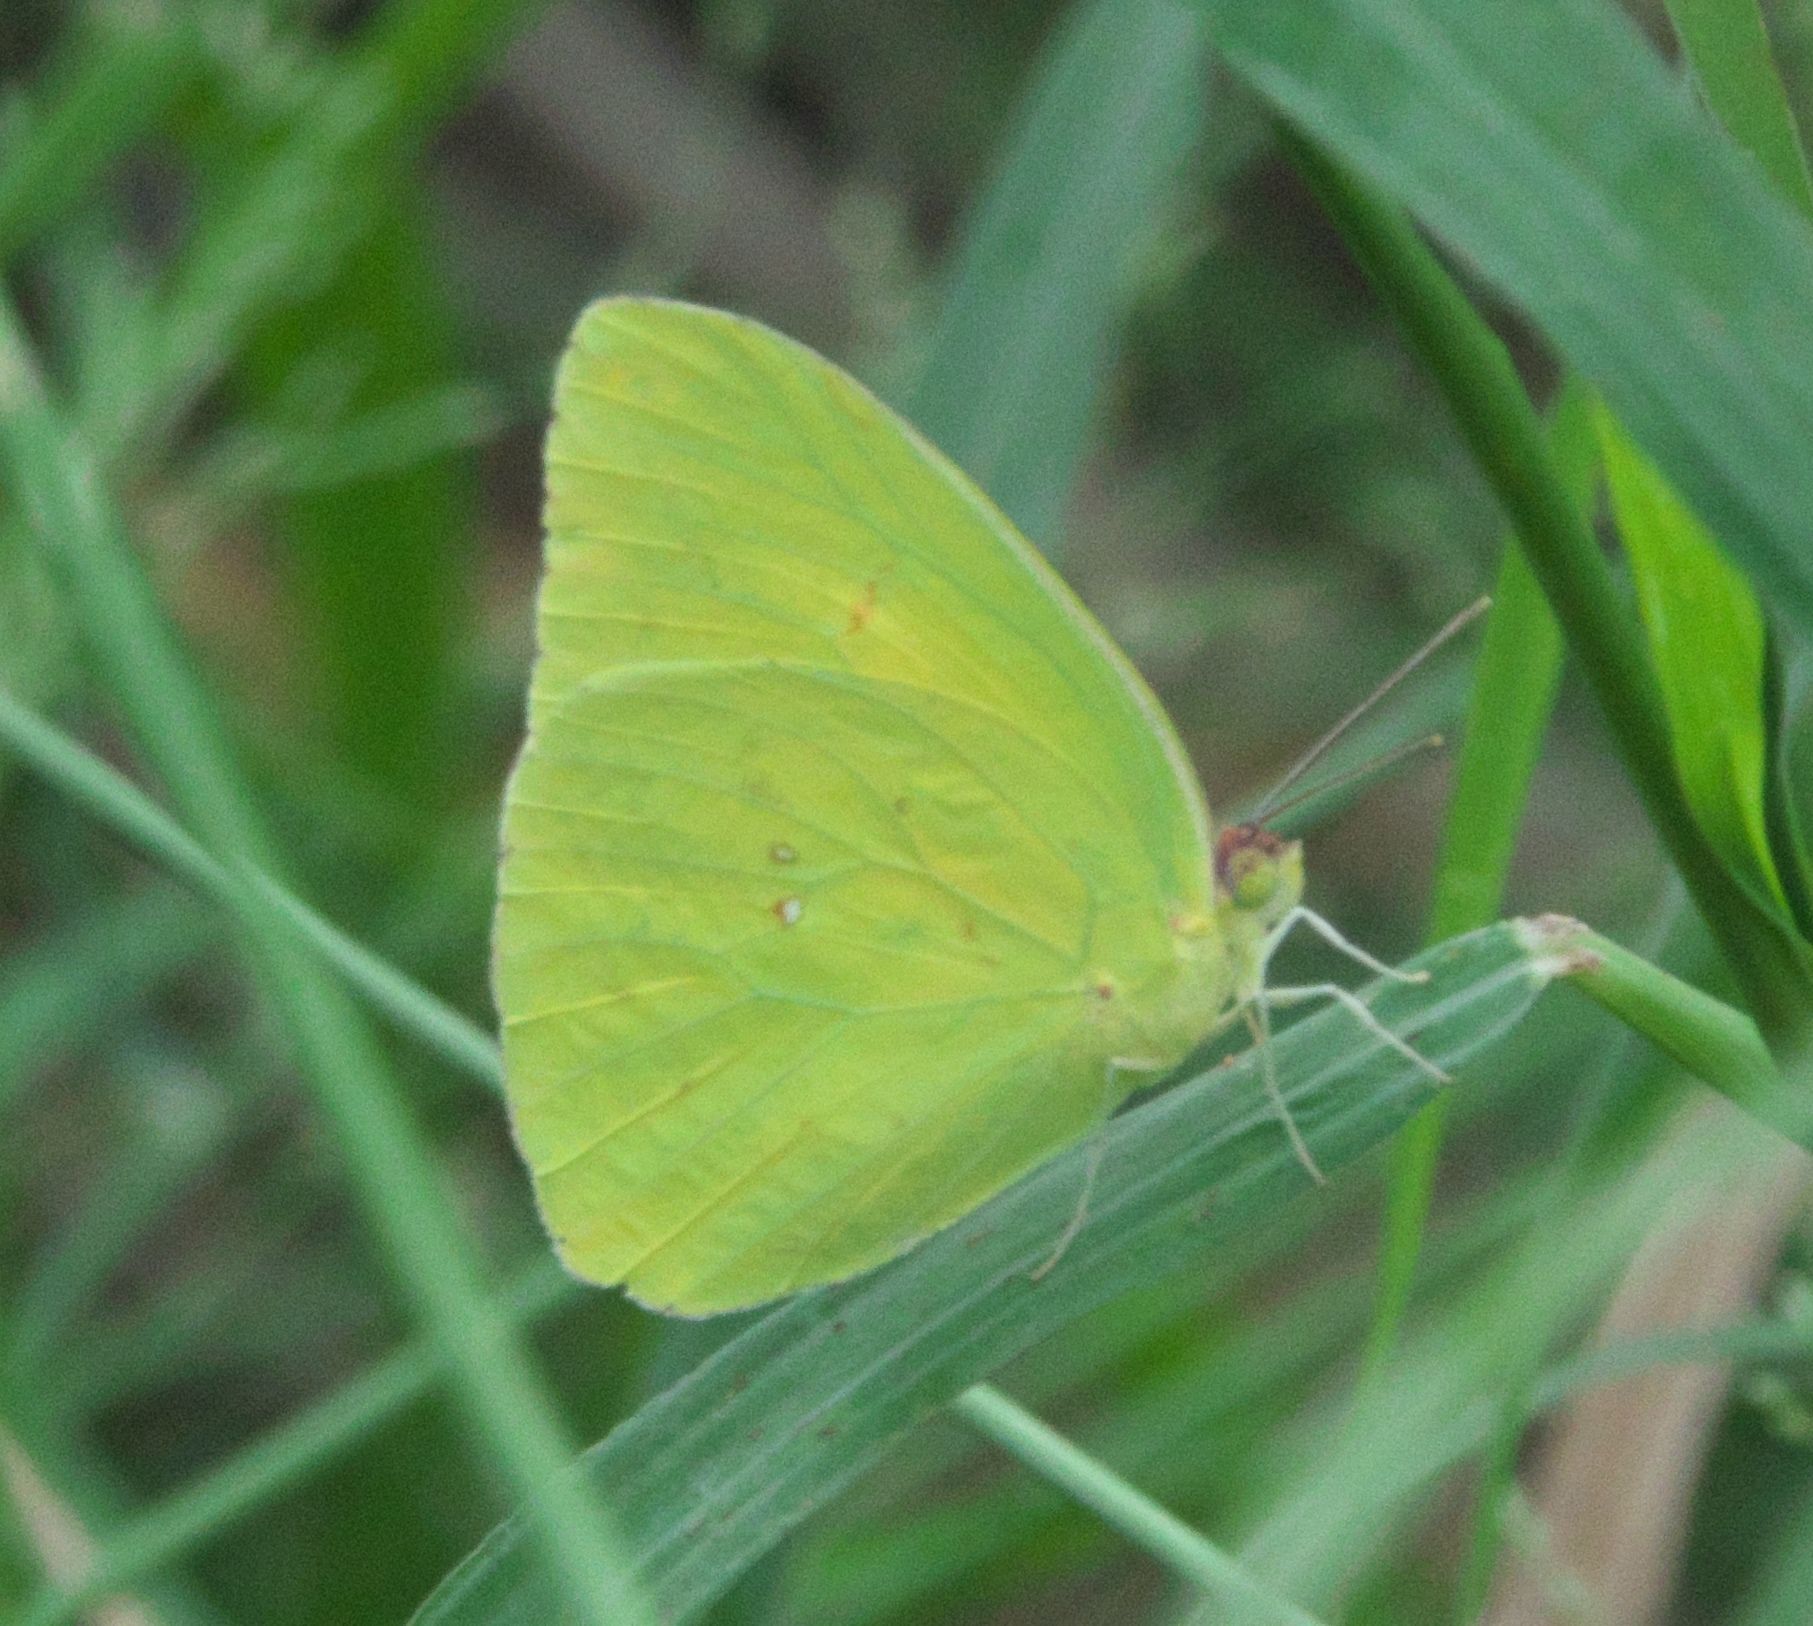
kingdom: Animalia
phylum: Arthropoda
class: Insecta
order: Lepidoptera
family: Pieridae
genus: Phoebis
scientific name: Phoebis sennae
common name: Cloudless sulphur
